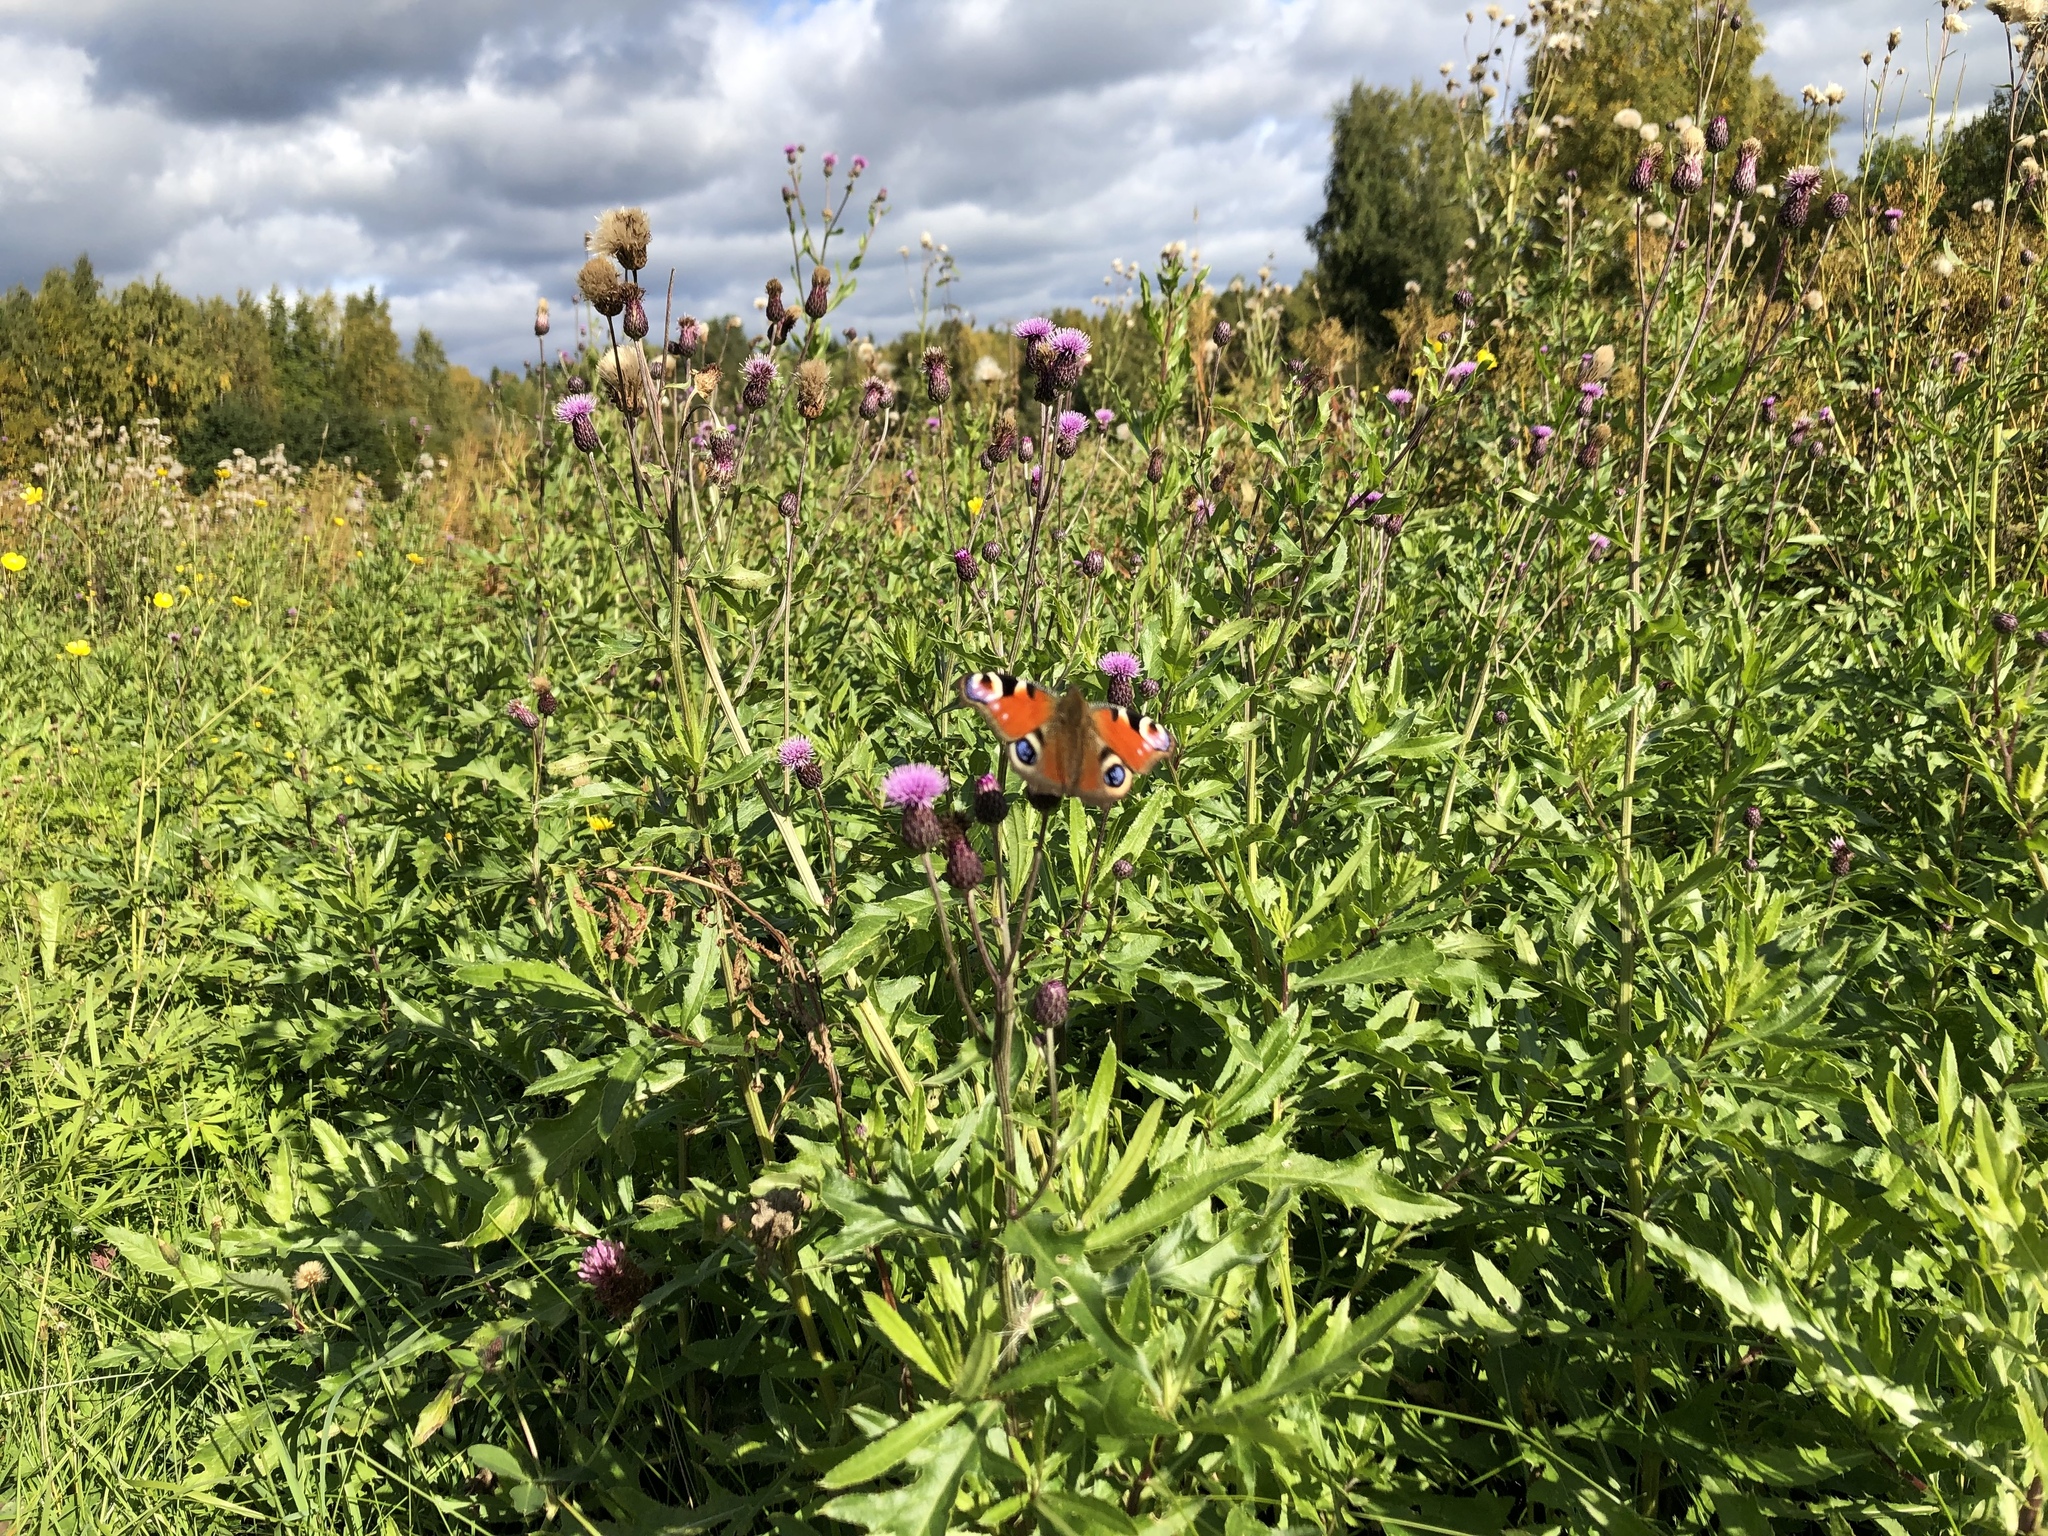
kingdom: Animalia
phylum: Arthropoda
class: Insecta
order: Lepidoptera
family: Nymphalidae
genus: Aglais
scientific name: Aglais io
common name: Peacock
